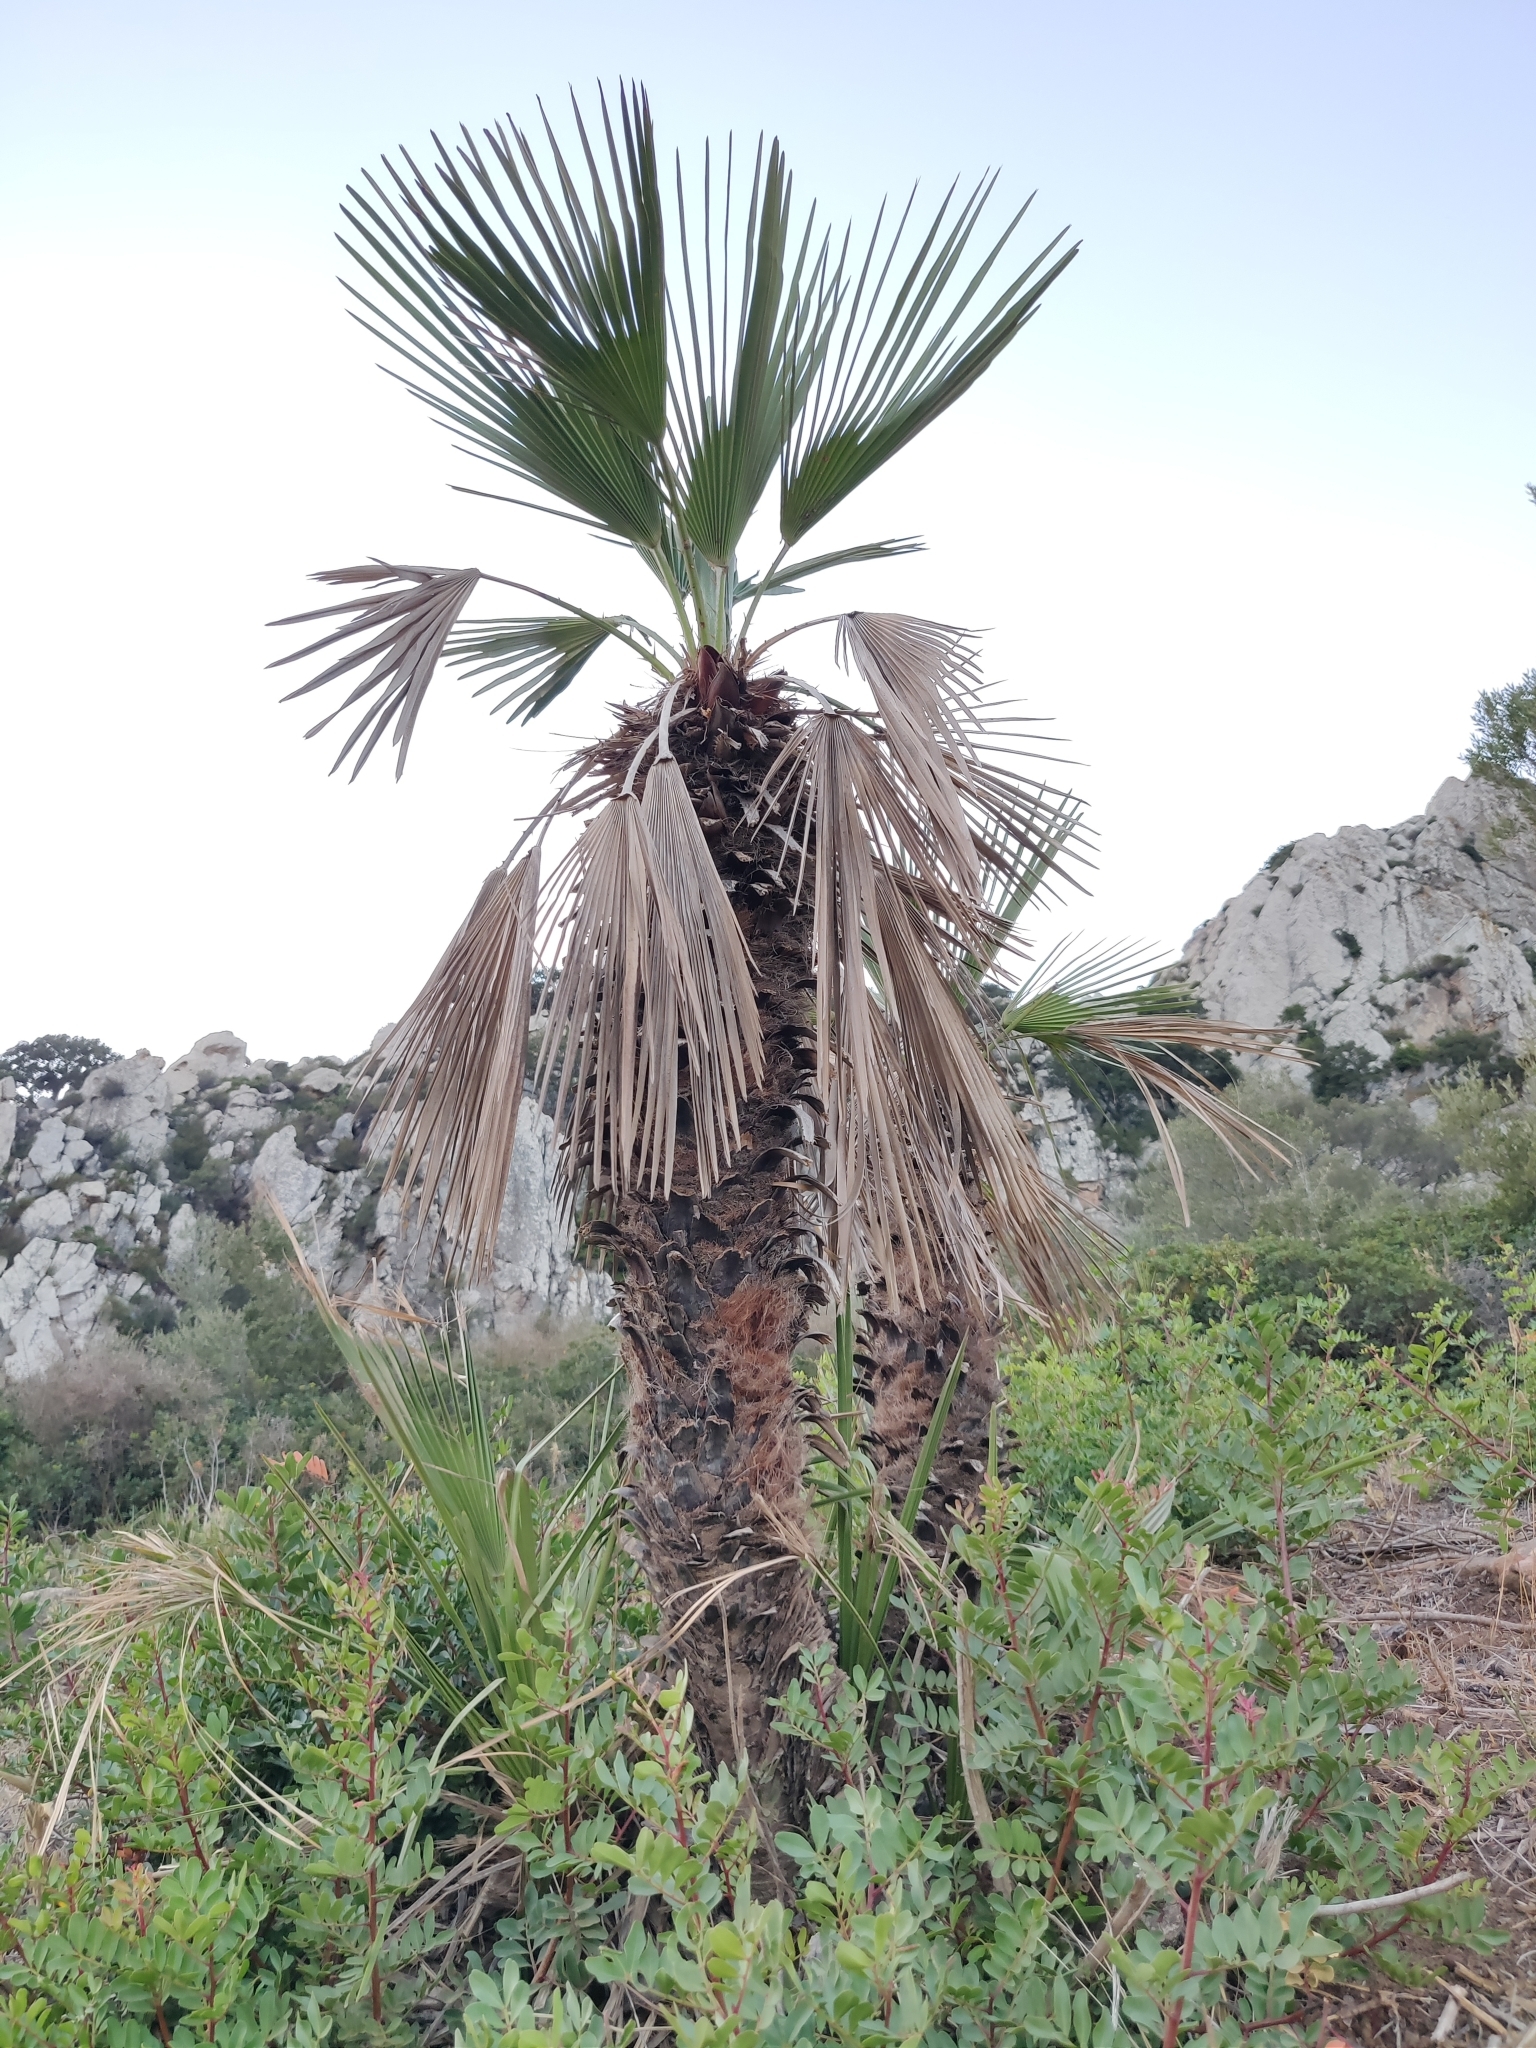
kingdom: Plantae
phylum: Tracheophyta
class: Liliopsida
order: Arecales
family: Arecaceae
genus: Chamaerops
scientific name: Chamaerops humilis
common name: Dwarf fan palm
